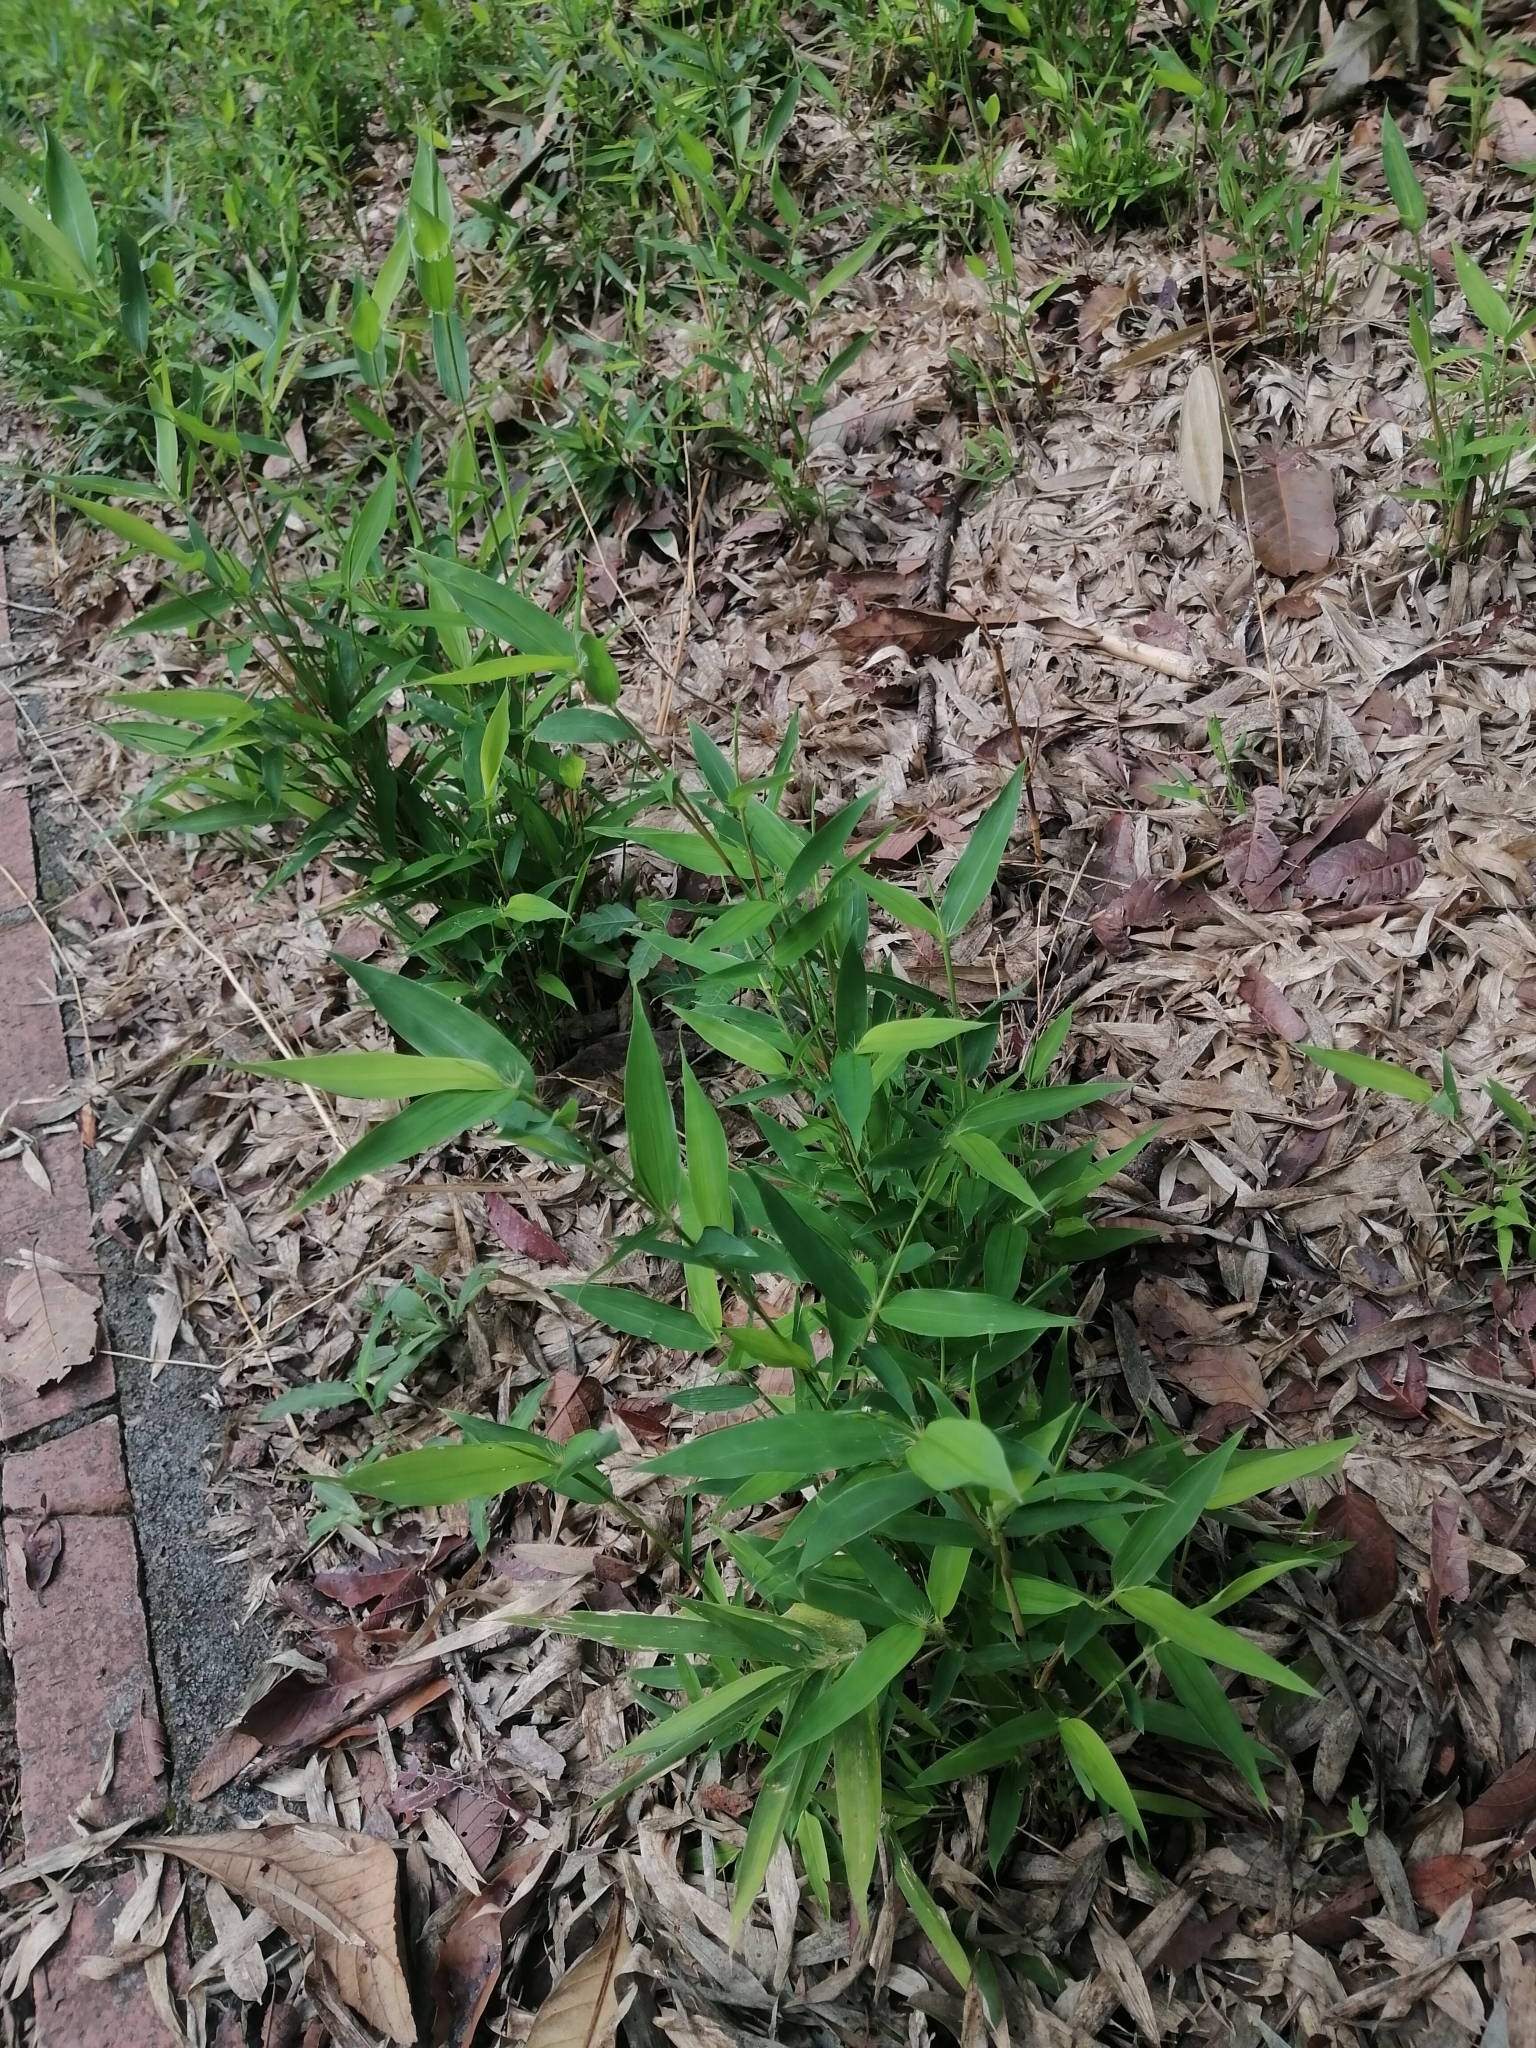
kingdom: Plantae
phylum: Tracheophyta
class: Liliopsida
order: Poales
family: Poaceae
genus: Phyllostachys
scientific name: Phyllostachys aurea
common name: Golden bamboo
